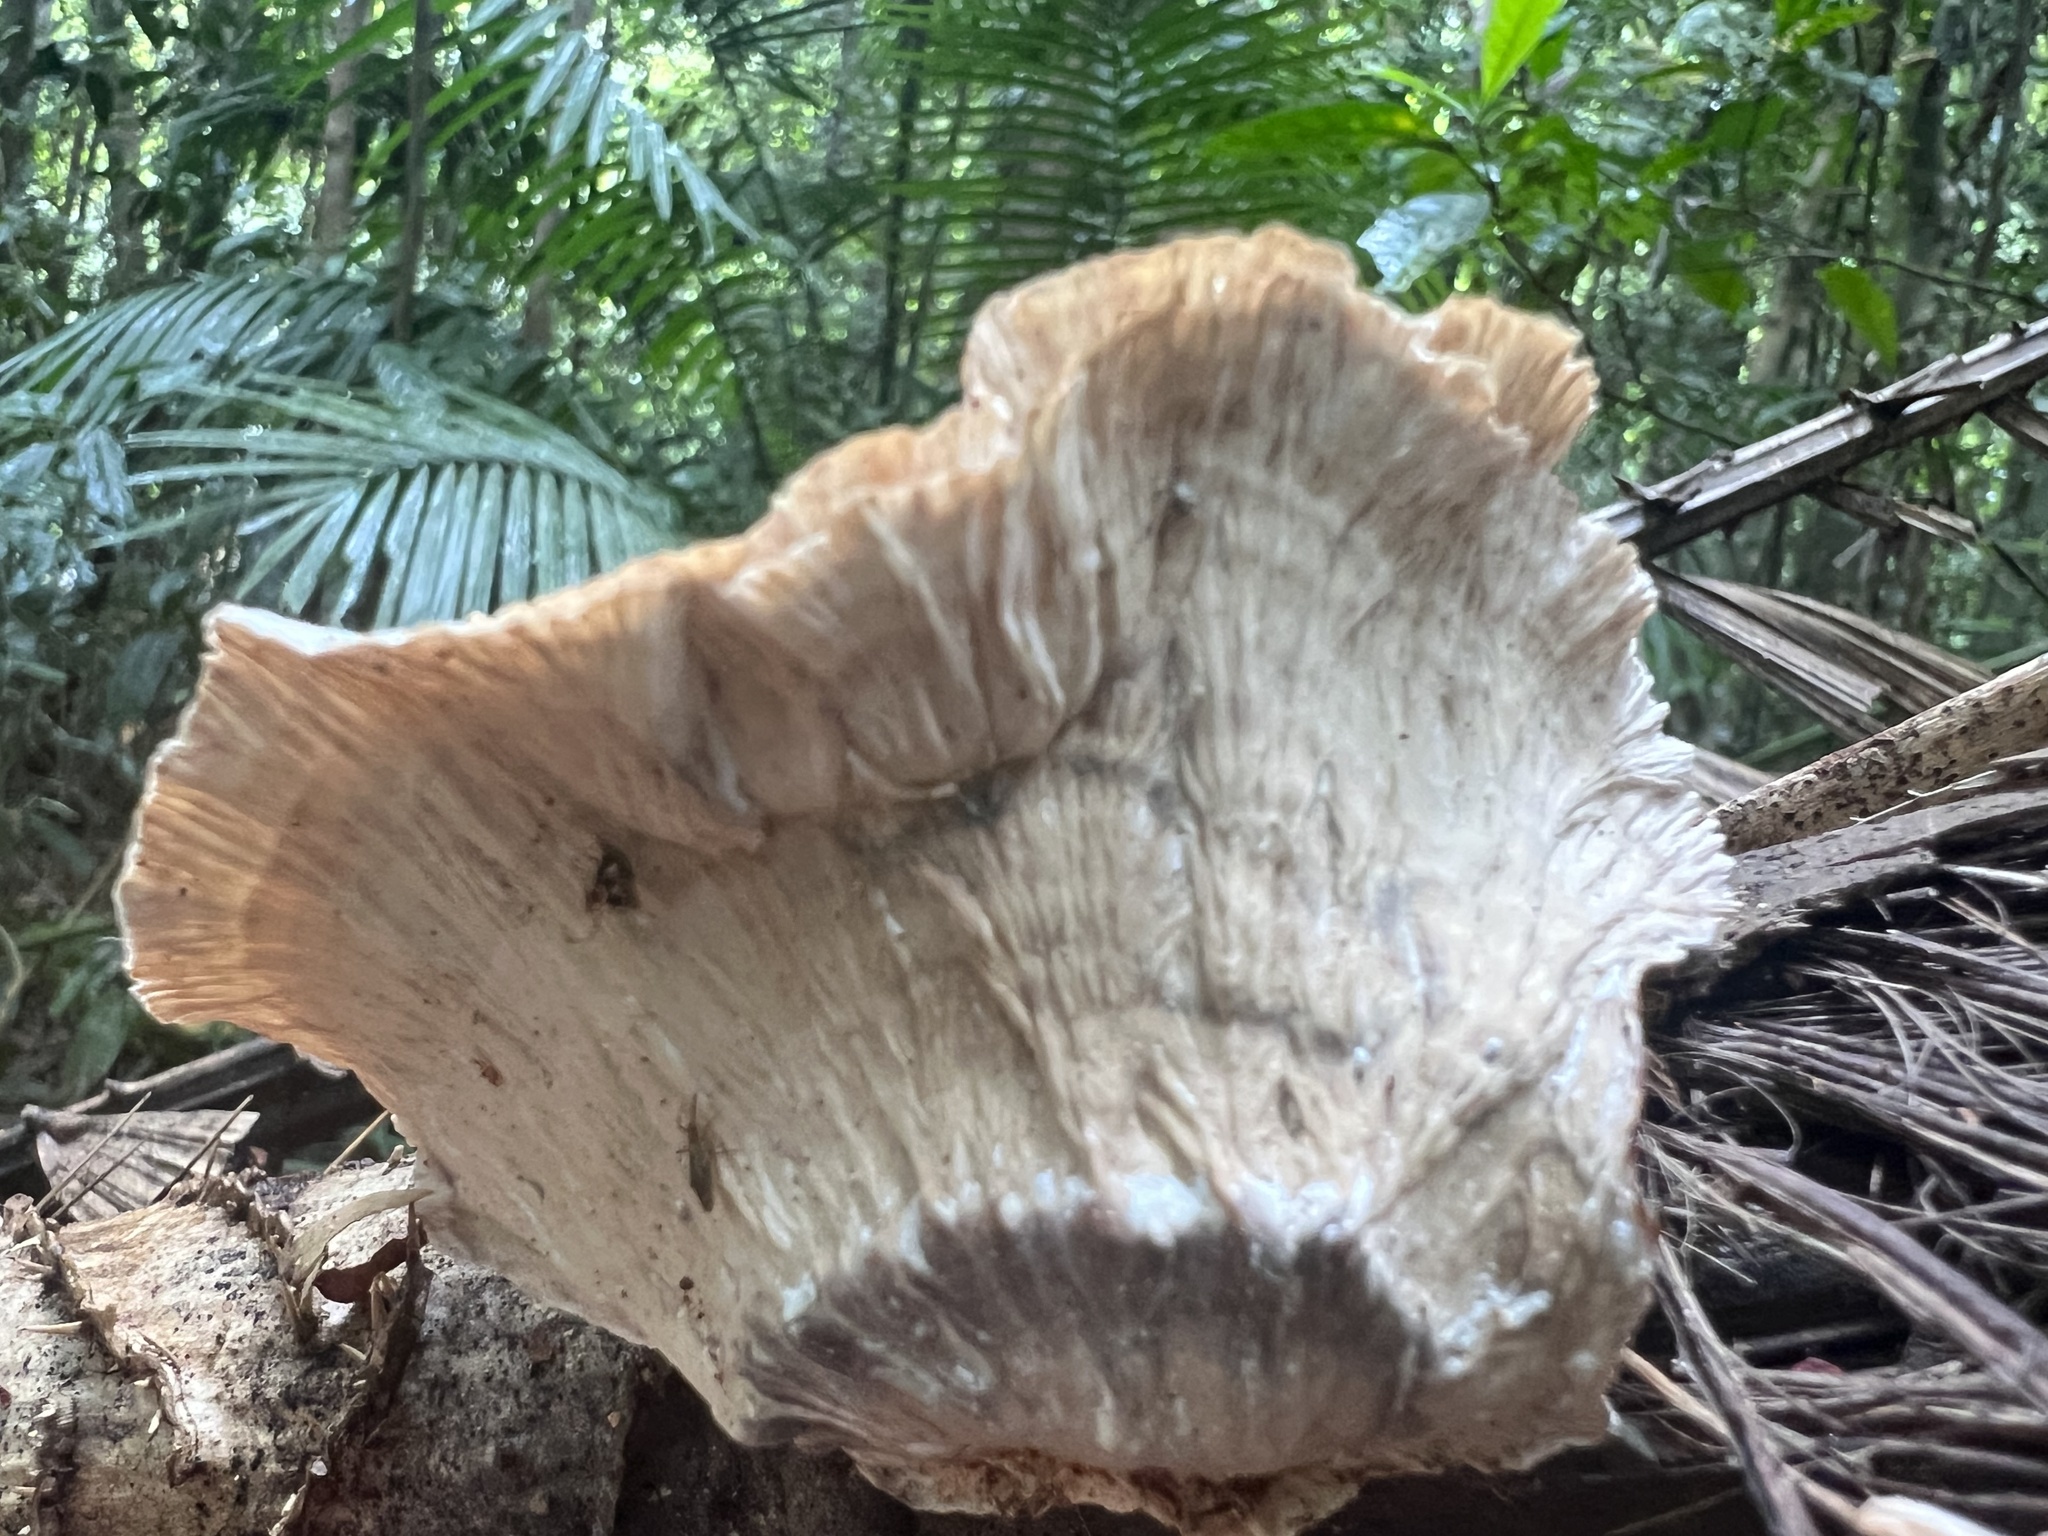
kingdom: Fungi
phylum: Basidiomycota
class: Agaricomycetes
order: Polyporales
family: Panaceae
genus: Cymatoderma
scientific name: Cymatoderma elegans
